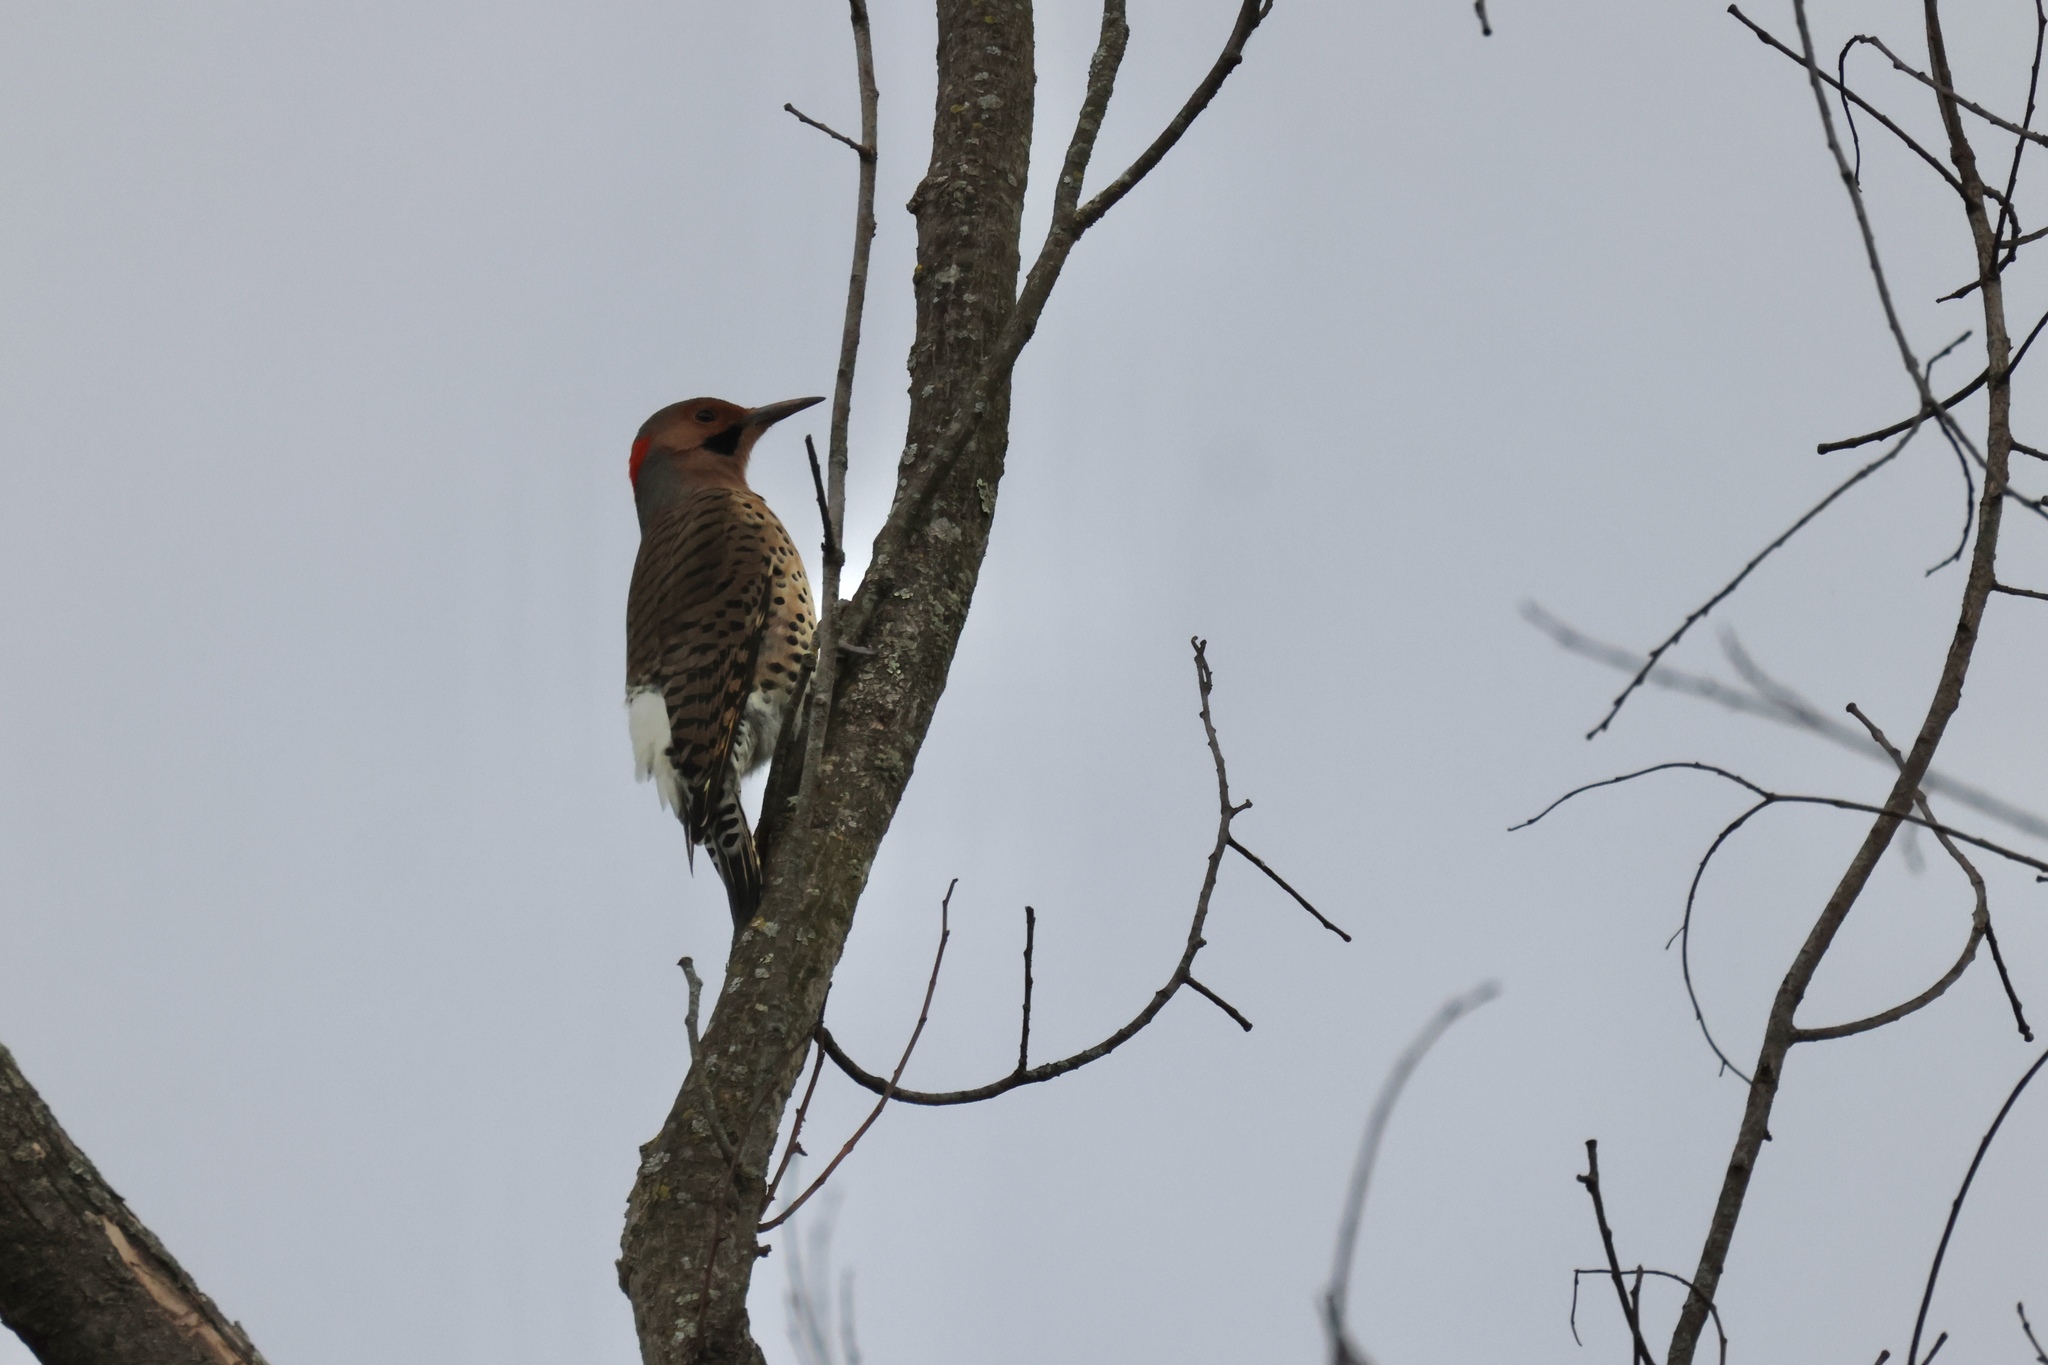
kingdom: Animalia
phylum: Chordata
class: Aves
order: Piciformes
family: Picidae
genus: Colaptes
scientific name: Colaptes auratus
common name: Northern flicker
